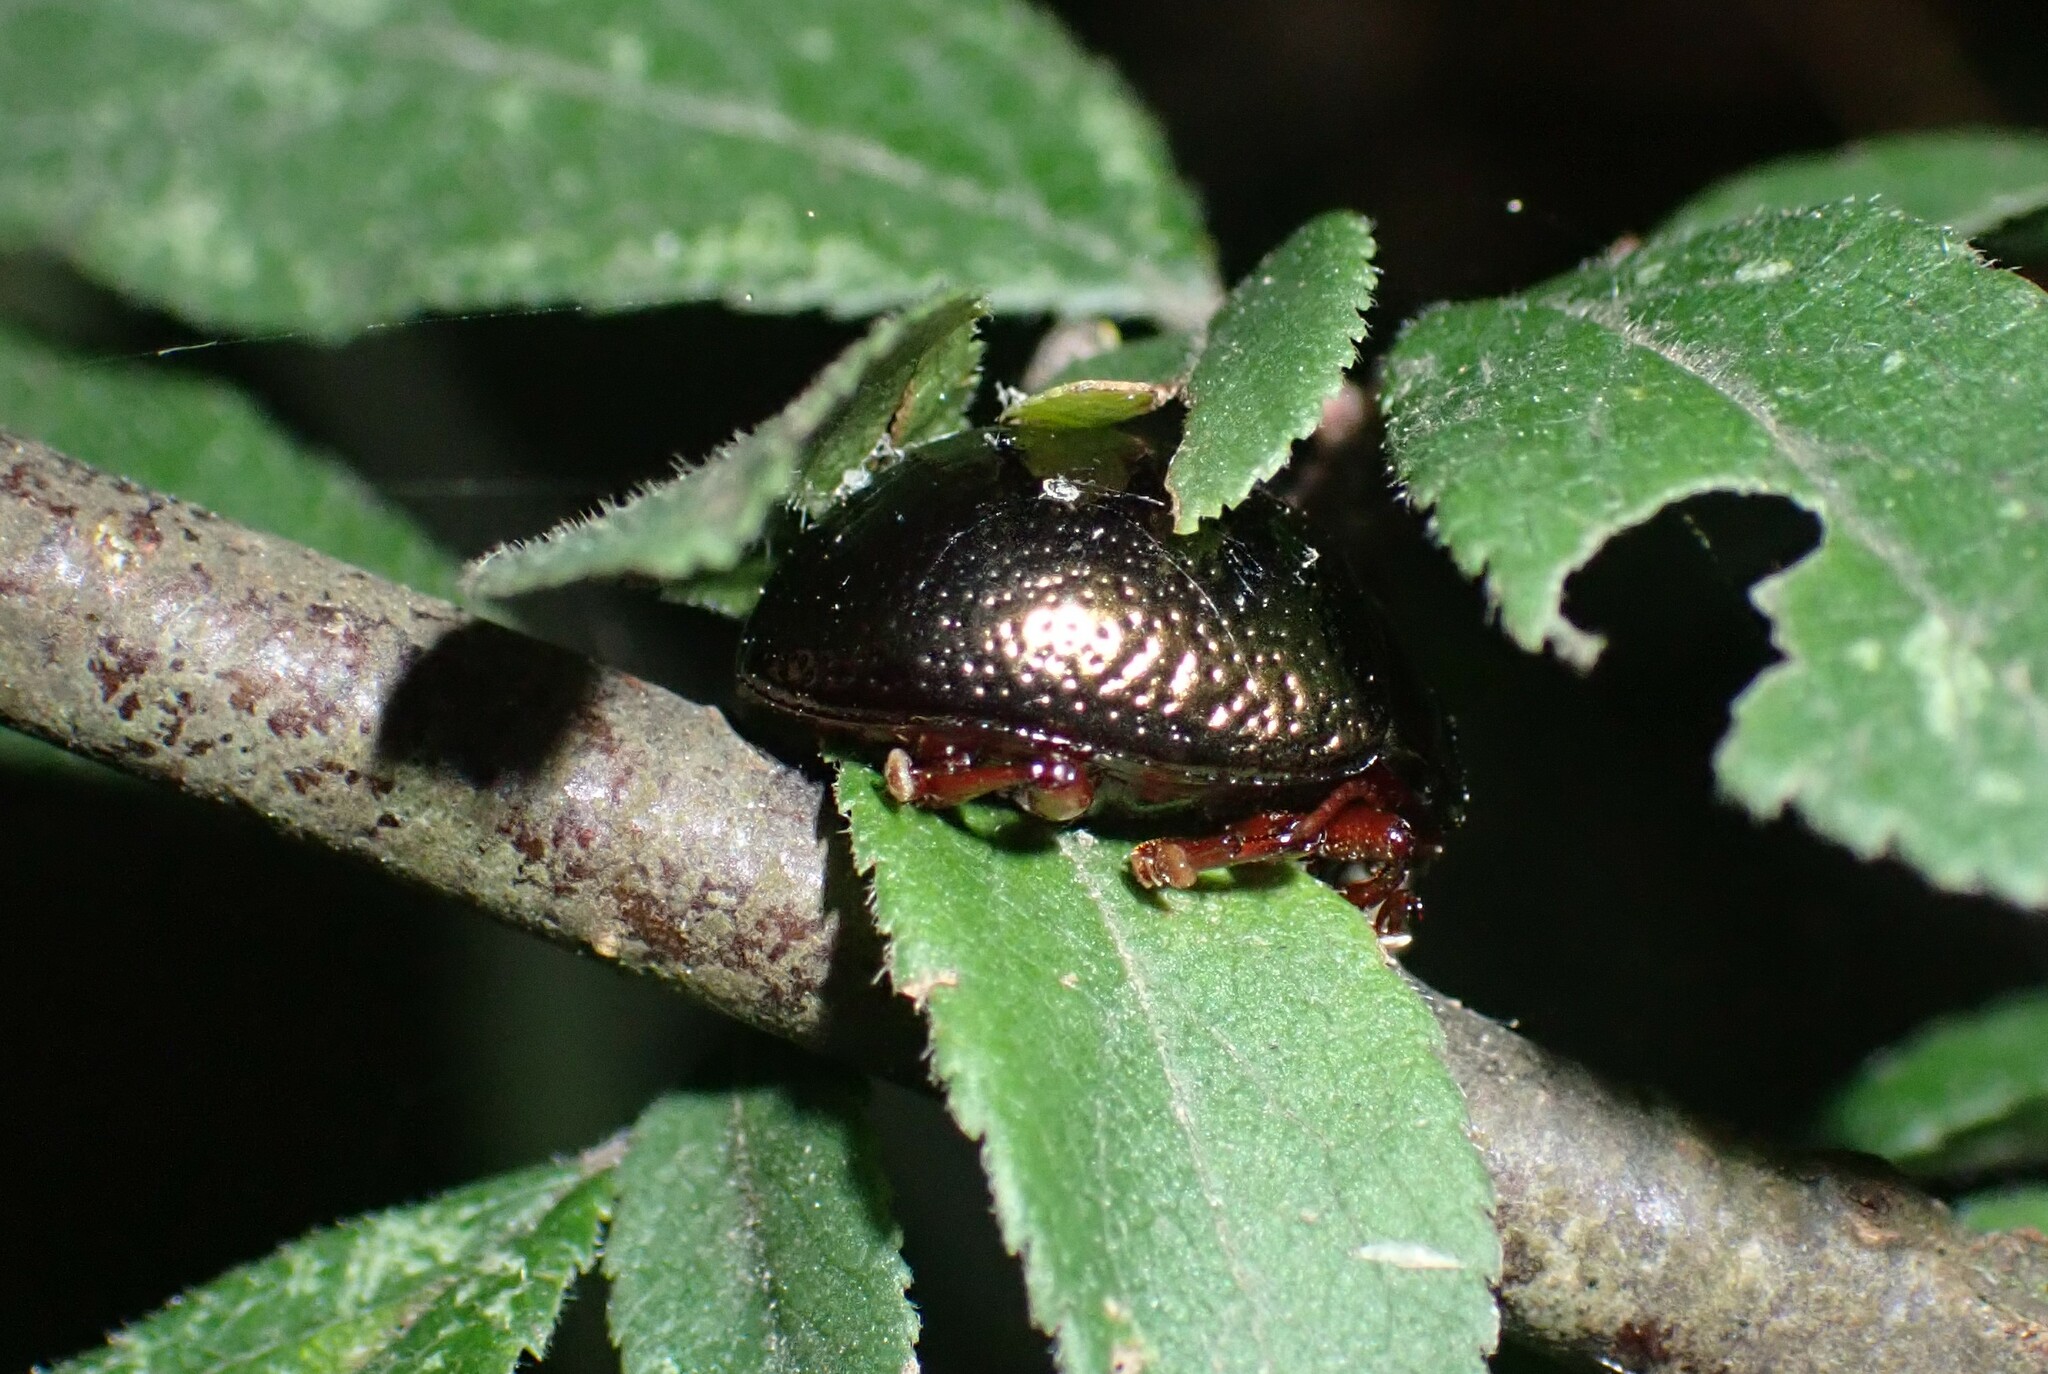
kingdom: Animalia
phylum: Arthropoda
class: Insecta
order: Coleoptera
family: Chrysomelidae
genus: Chrysolina
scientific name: Chrysolina bankii
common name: Leaf beetle
